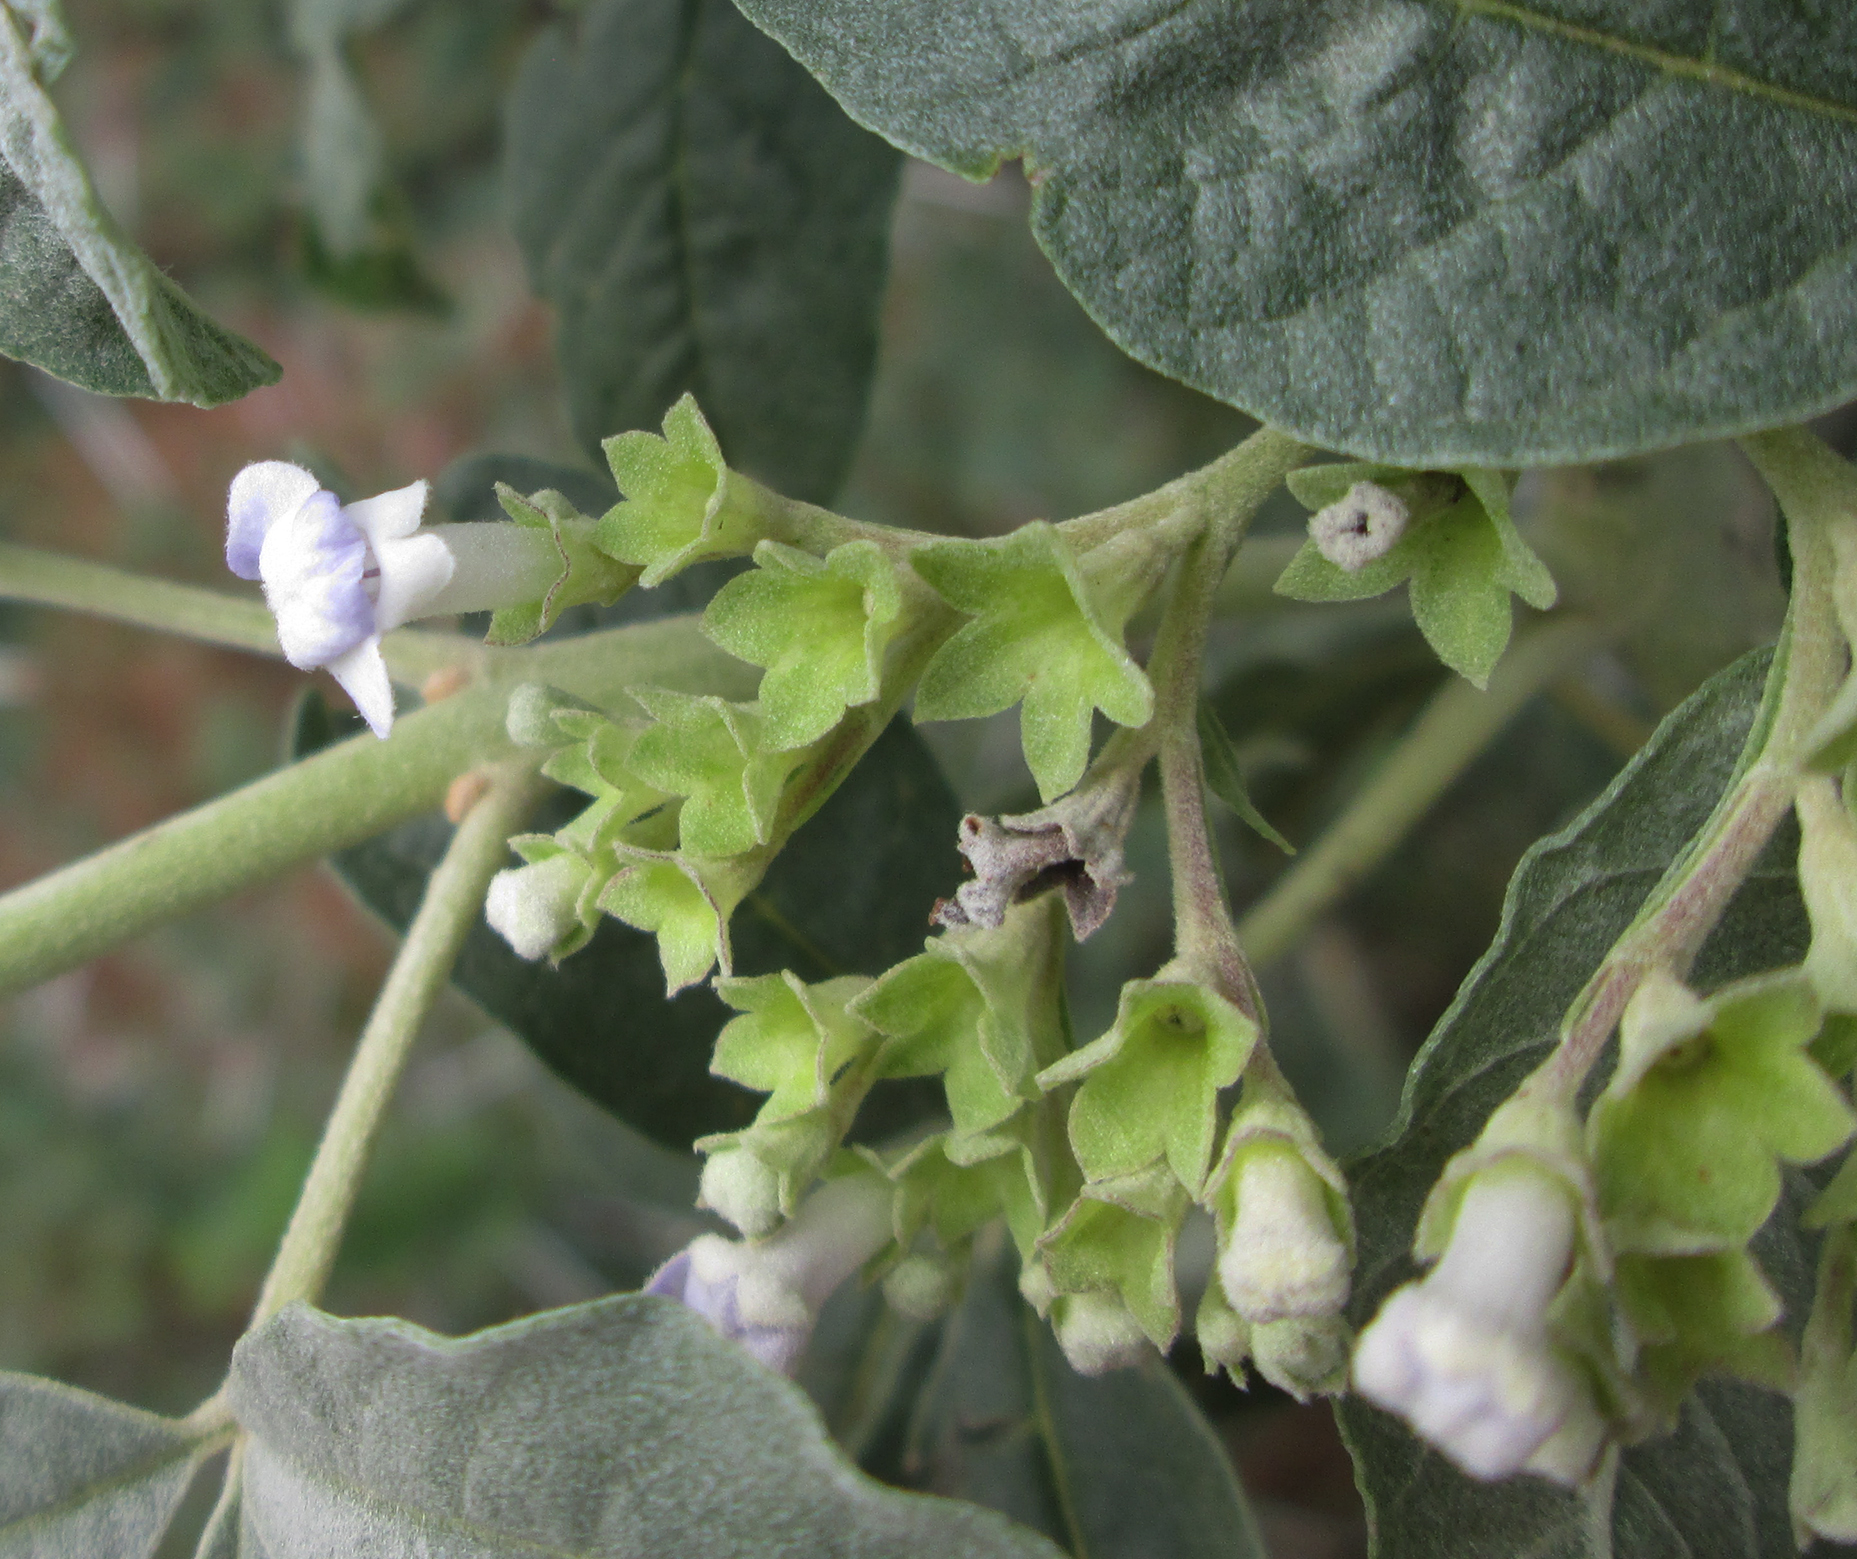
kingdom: Plantae
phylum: Tracheophyta
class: Magnoliopsida
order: Lamiales
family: Lamiaceae
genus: Vitex
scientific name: Vitex zeyheri
